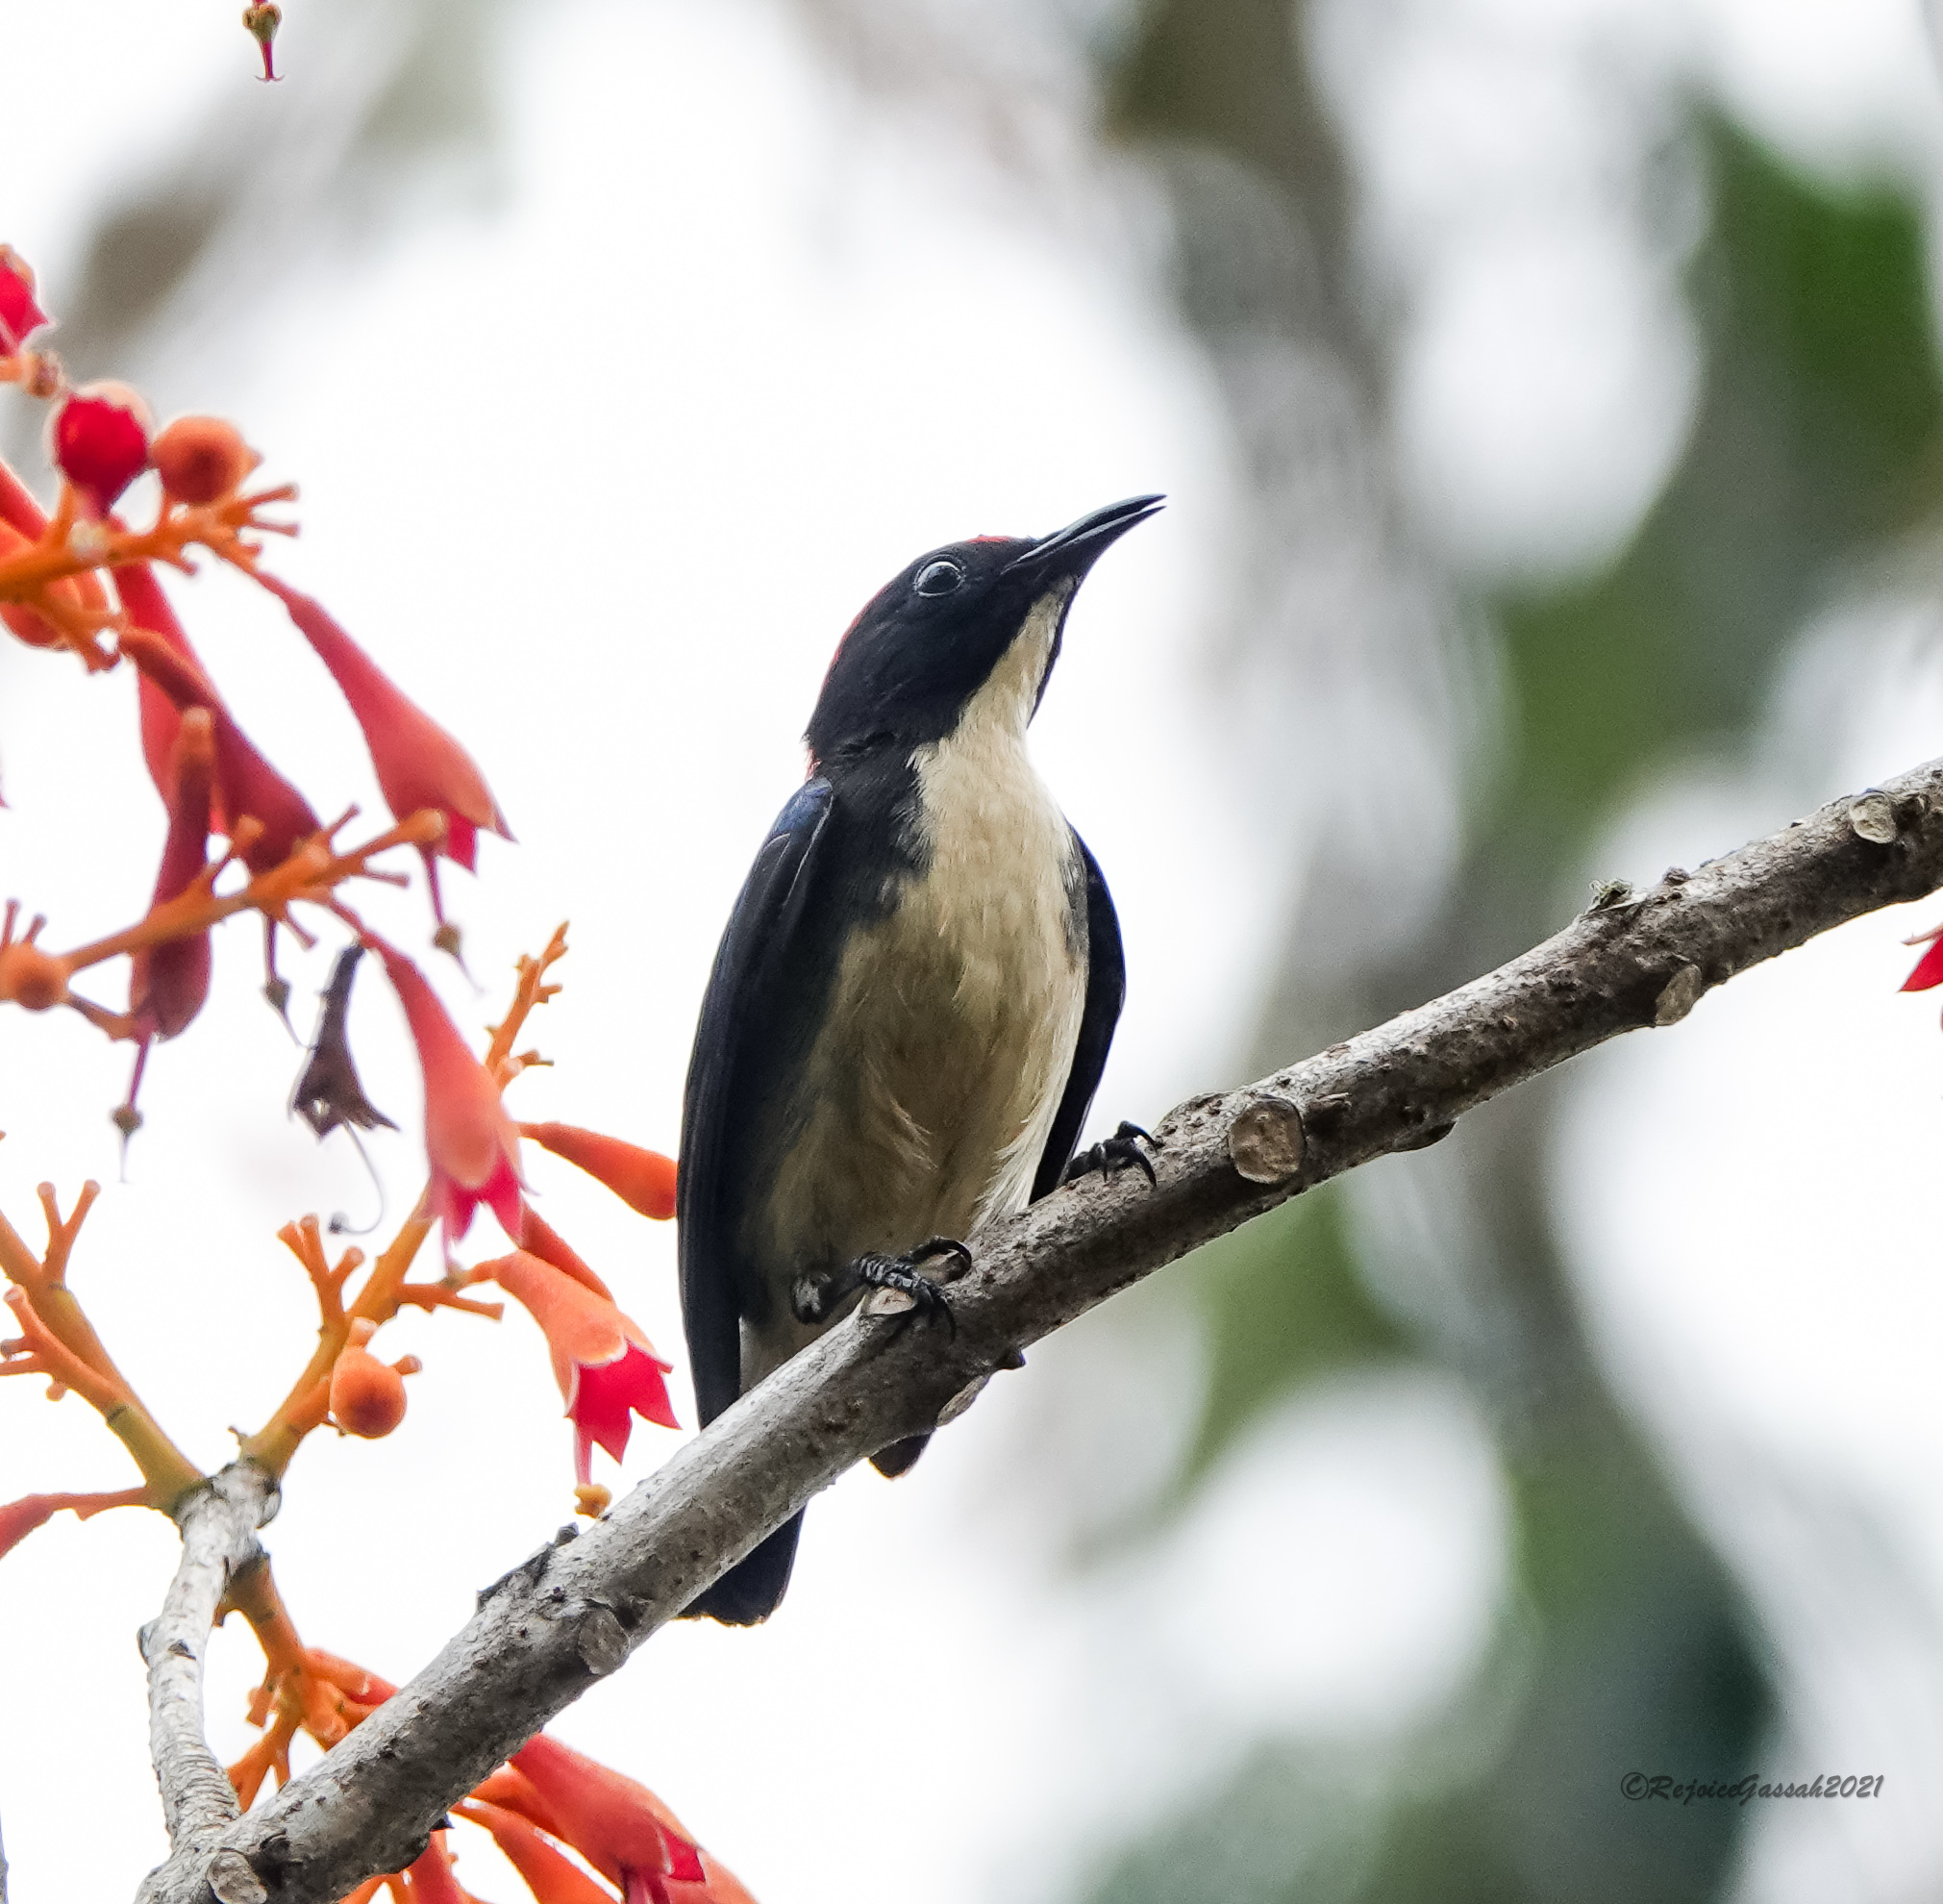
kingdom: Animalia
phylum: Chordata
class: Aves
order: Passeriformes
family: Dicaeidae
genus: Dicaeum
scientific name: Dicaeum cruentatum
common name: Scarlet-backed flowerpecker
